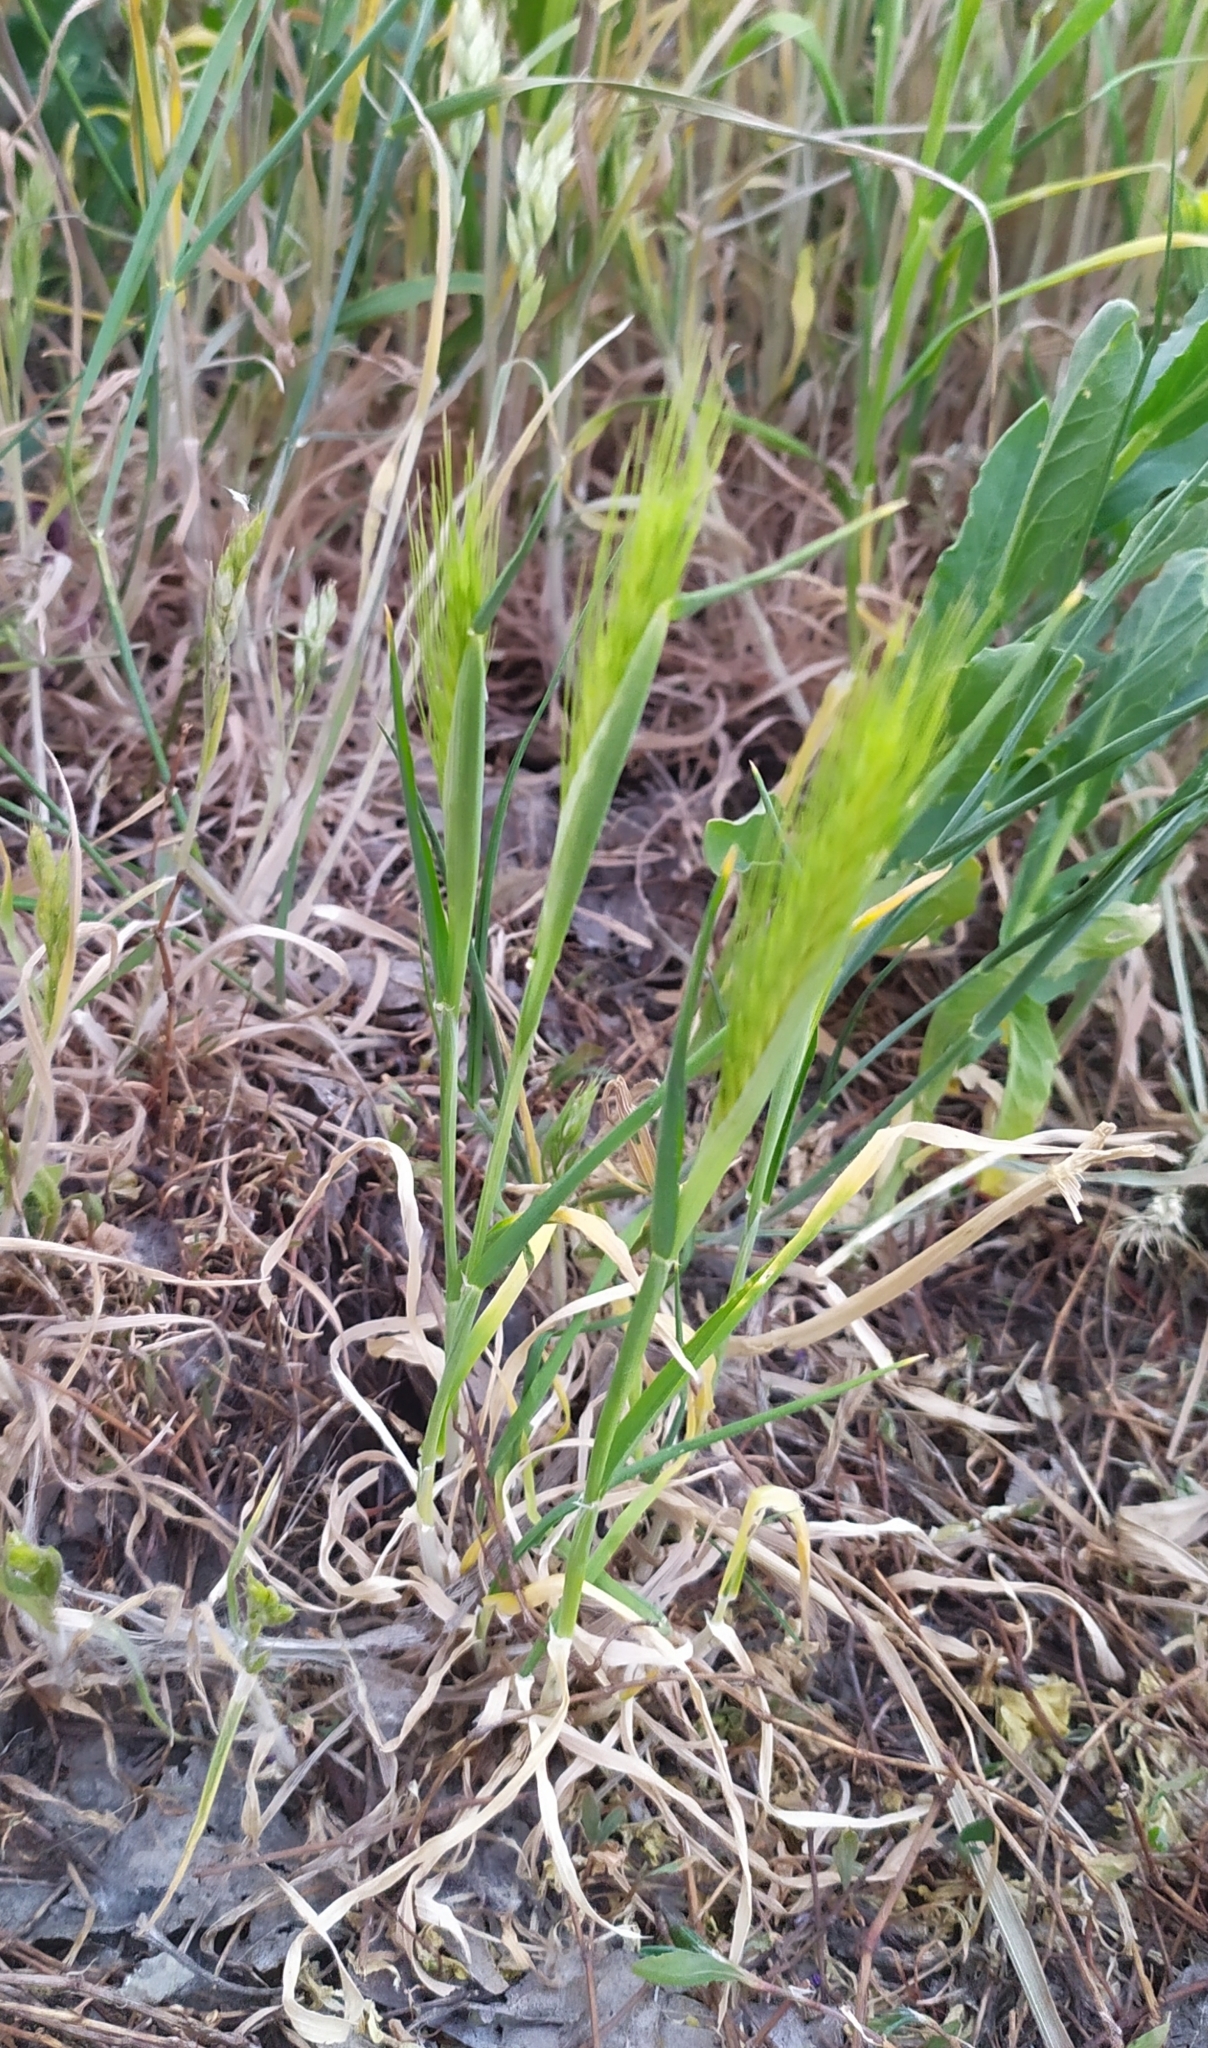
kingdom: Plantae
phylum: Tracheophyta
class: Liliopsida
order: Poales
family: Poaceae
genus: Hordeum
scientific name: Hordeum murinum
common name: Wall barley
